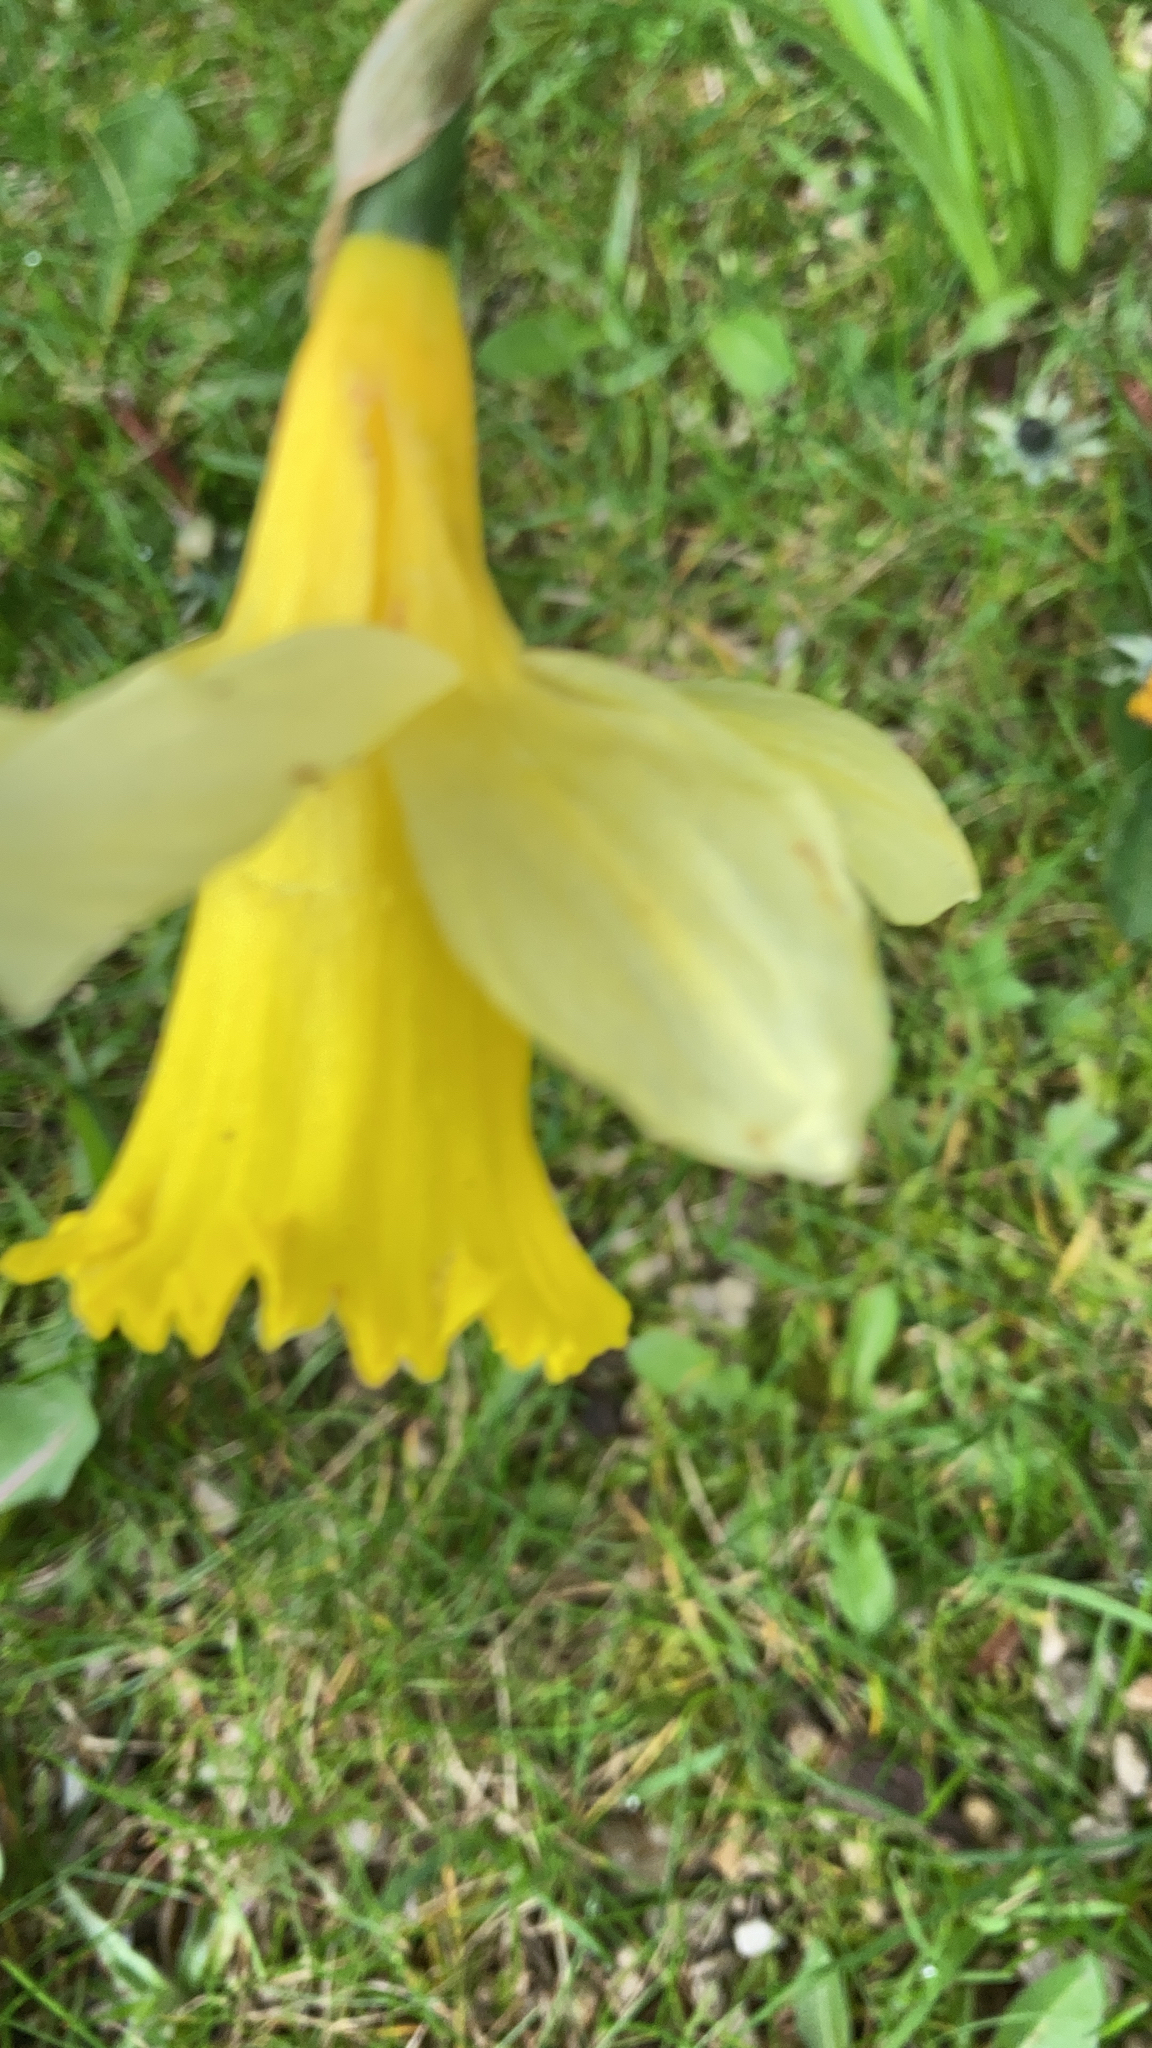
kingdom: Plantae
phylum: Tracheophyta
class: Liliopsida
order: Asparagales
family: Amaryllidaceae
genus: Narcissus
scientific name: Narcissus pseudonarcissus
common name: Daffodil
